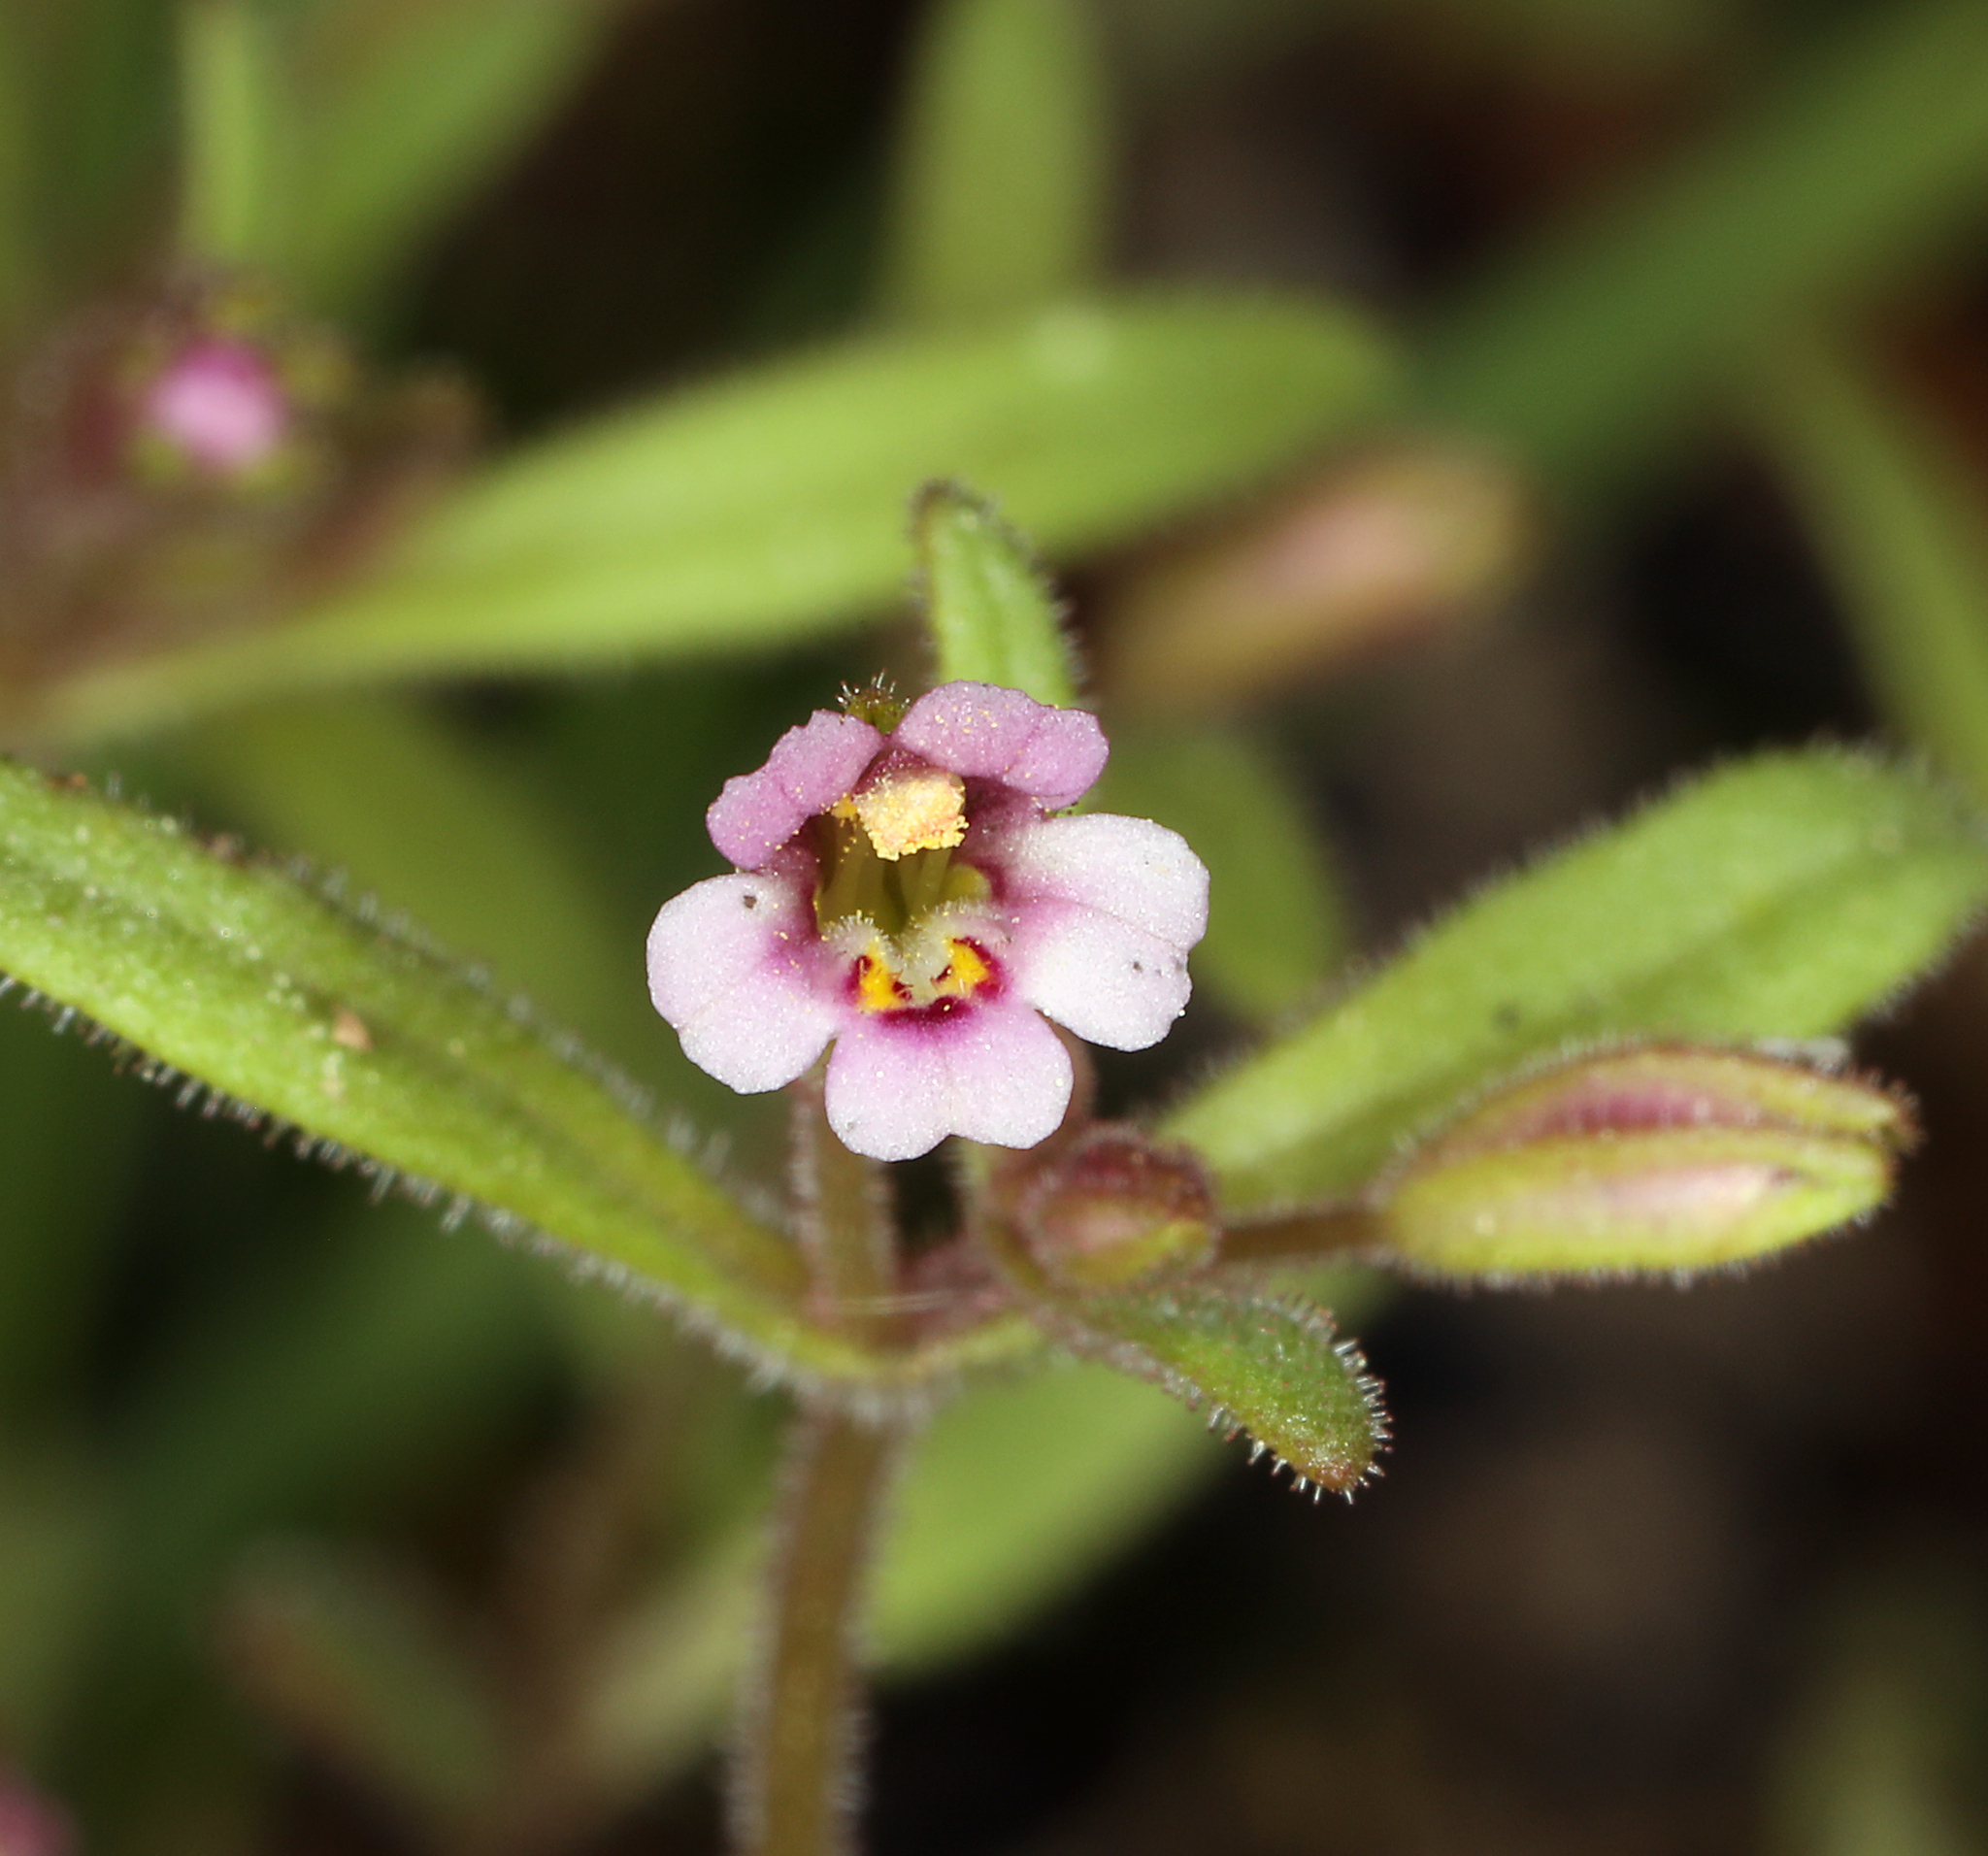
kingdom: Plantae
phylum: Tracheophyta
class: Magnoliopsida
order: Lamiales
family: Phrymaceae
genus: Erythranthe
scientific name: Erythranthe breweri
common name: Brewer's monkeyflower
